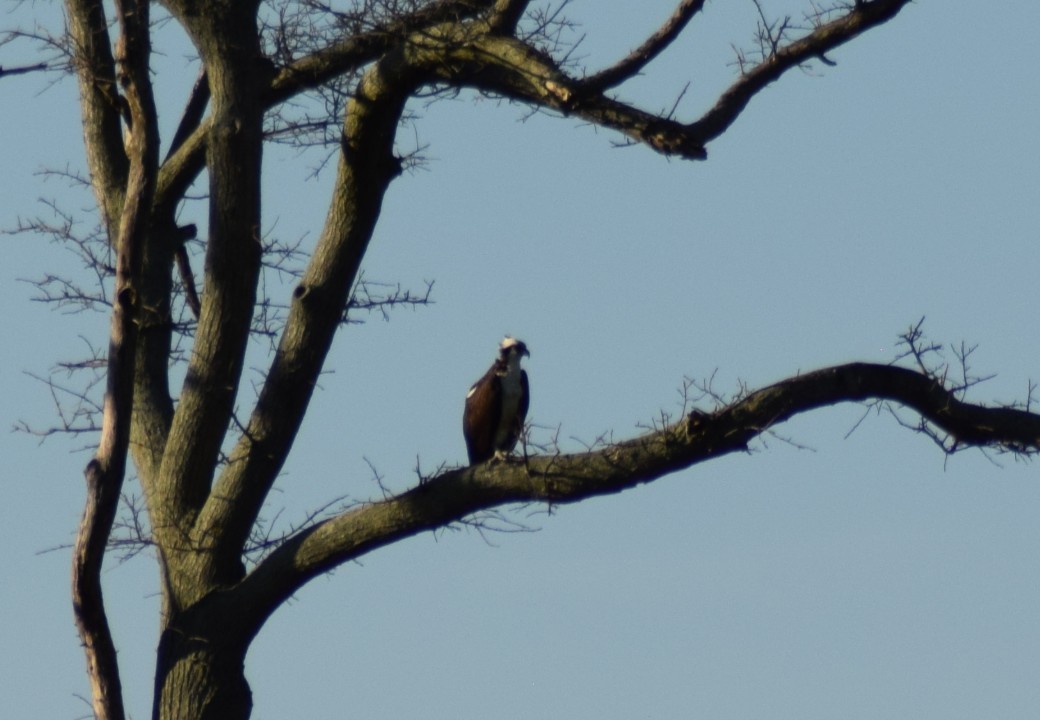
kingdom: Animalia
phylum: Chordata
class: Aves
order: Accipitriformes
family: Pandionidae
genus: Pandion
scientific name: Pandion haliaetus
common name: Osprey
